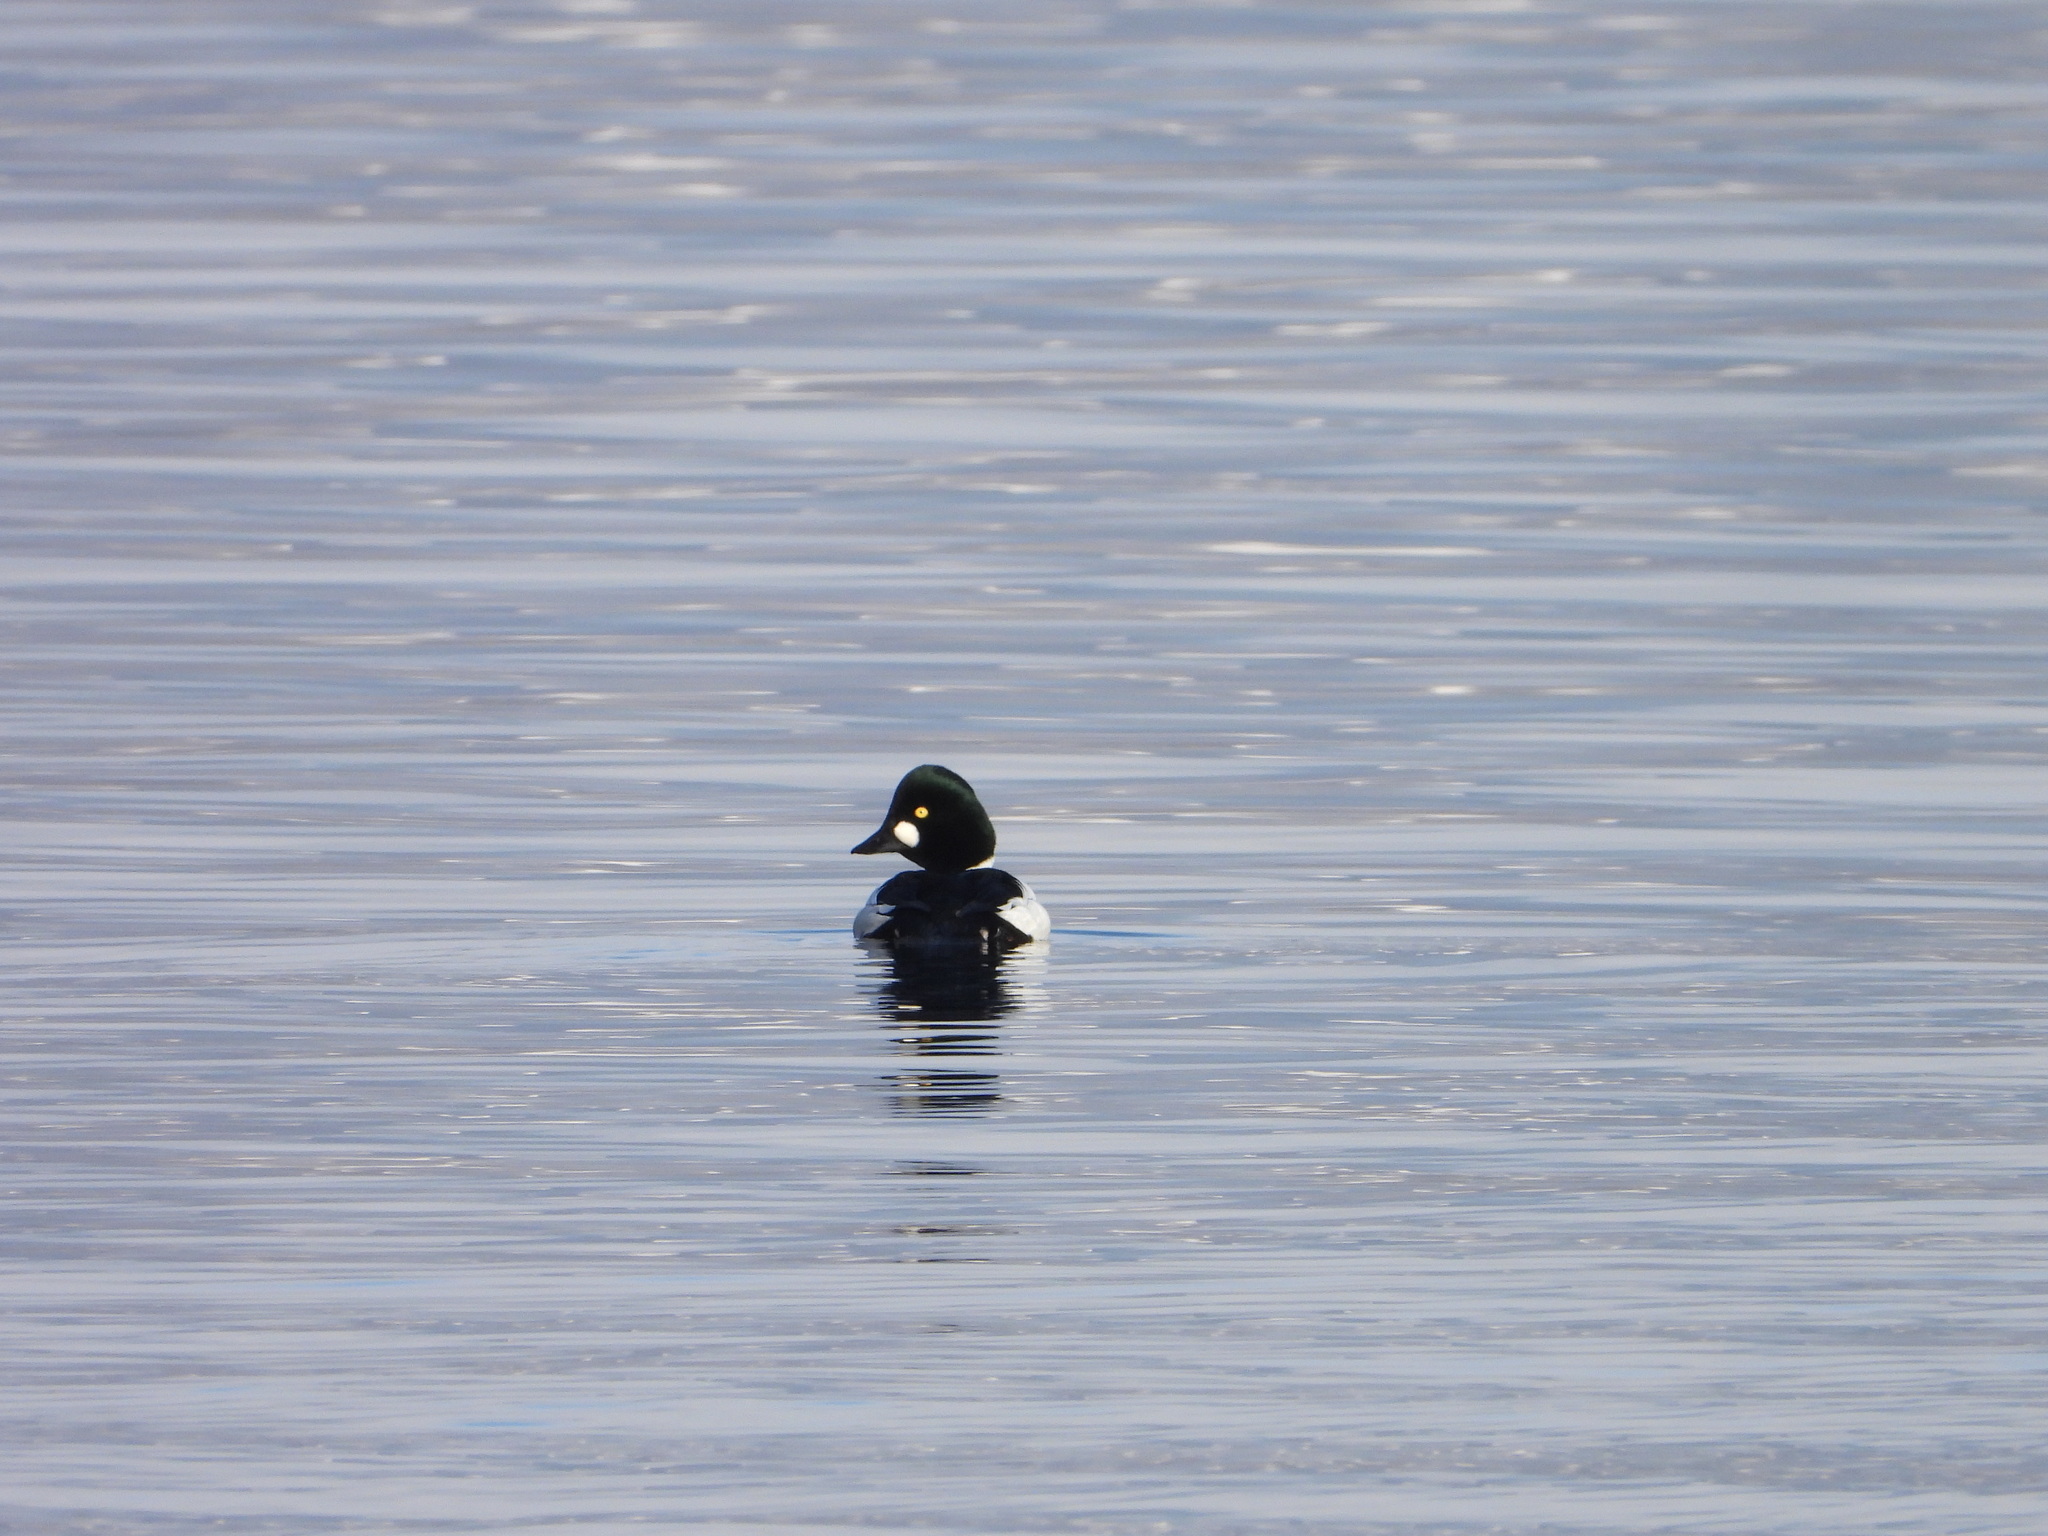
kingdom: Animalia
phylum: Chordata
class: Aves
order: Anseriformes
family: Anatidae
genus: Bucephala
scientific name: Bucephala clangula
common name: Common goldeneye
